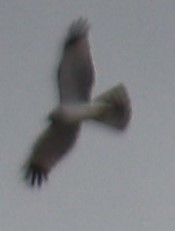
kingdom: Animalia
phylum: Chordata
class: Aves
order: Accipitriformes
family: Accipitridae
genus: Circus
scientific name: Circus cyaneus
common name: Hen harrier
